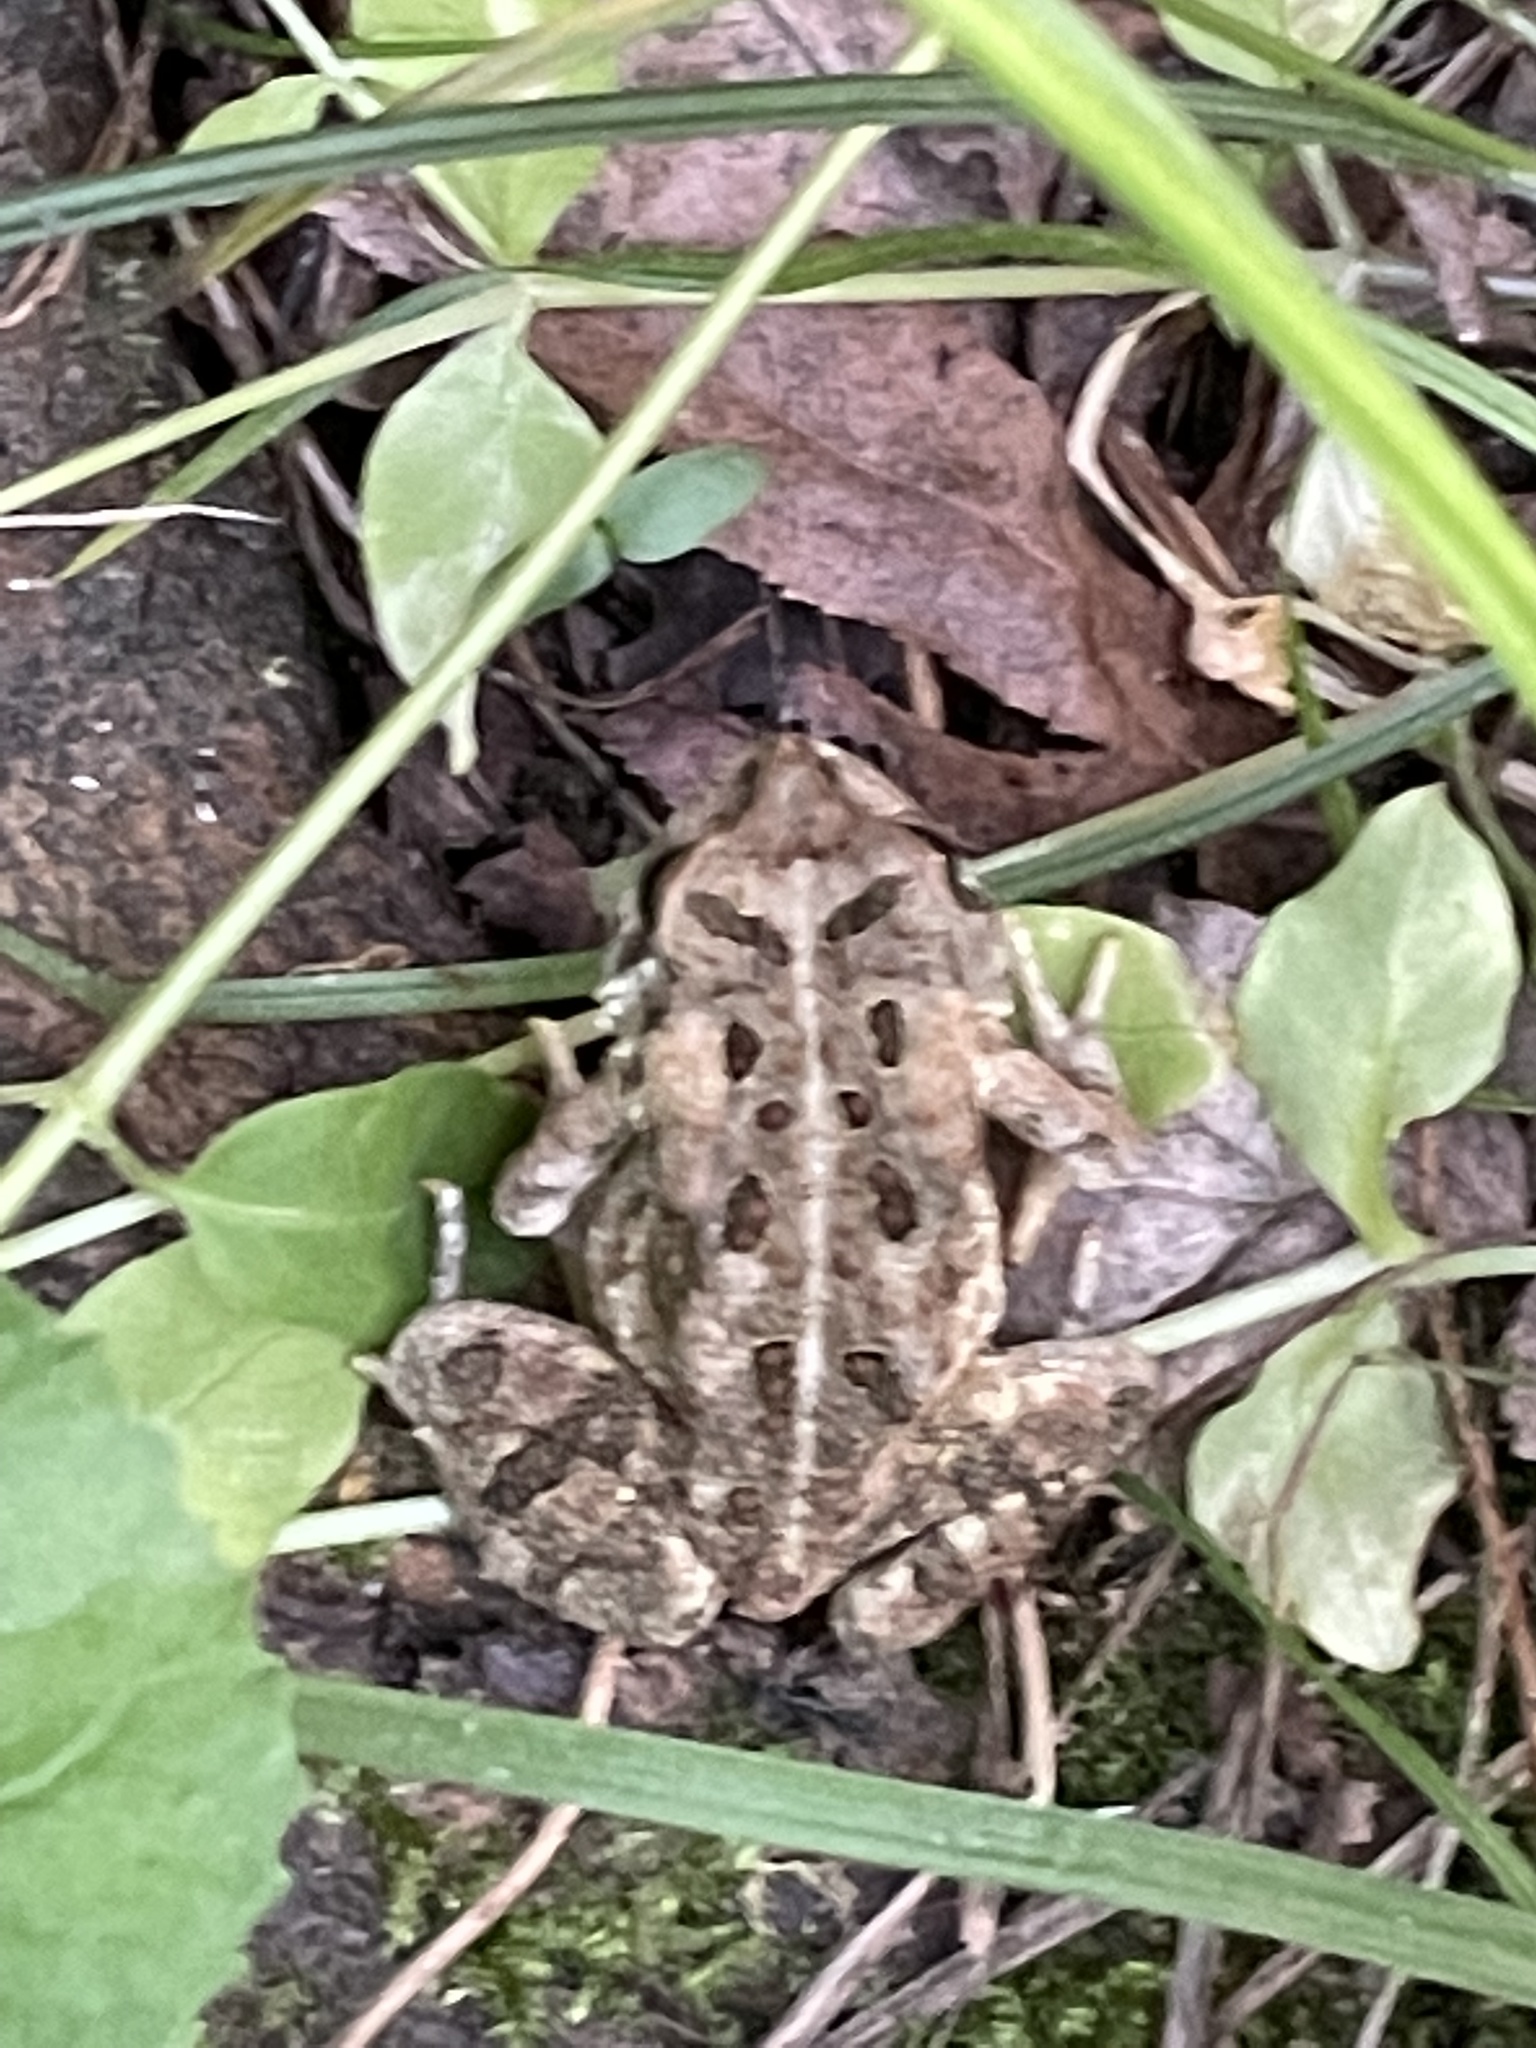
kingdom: Animalia
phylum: Chordata
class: Amphibia
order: Anura
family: Bufonidae
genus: Anaxyrus
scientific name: Anaxyrus fowleri
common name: Fowler's toad
